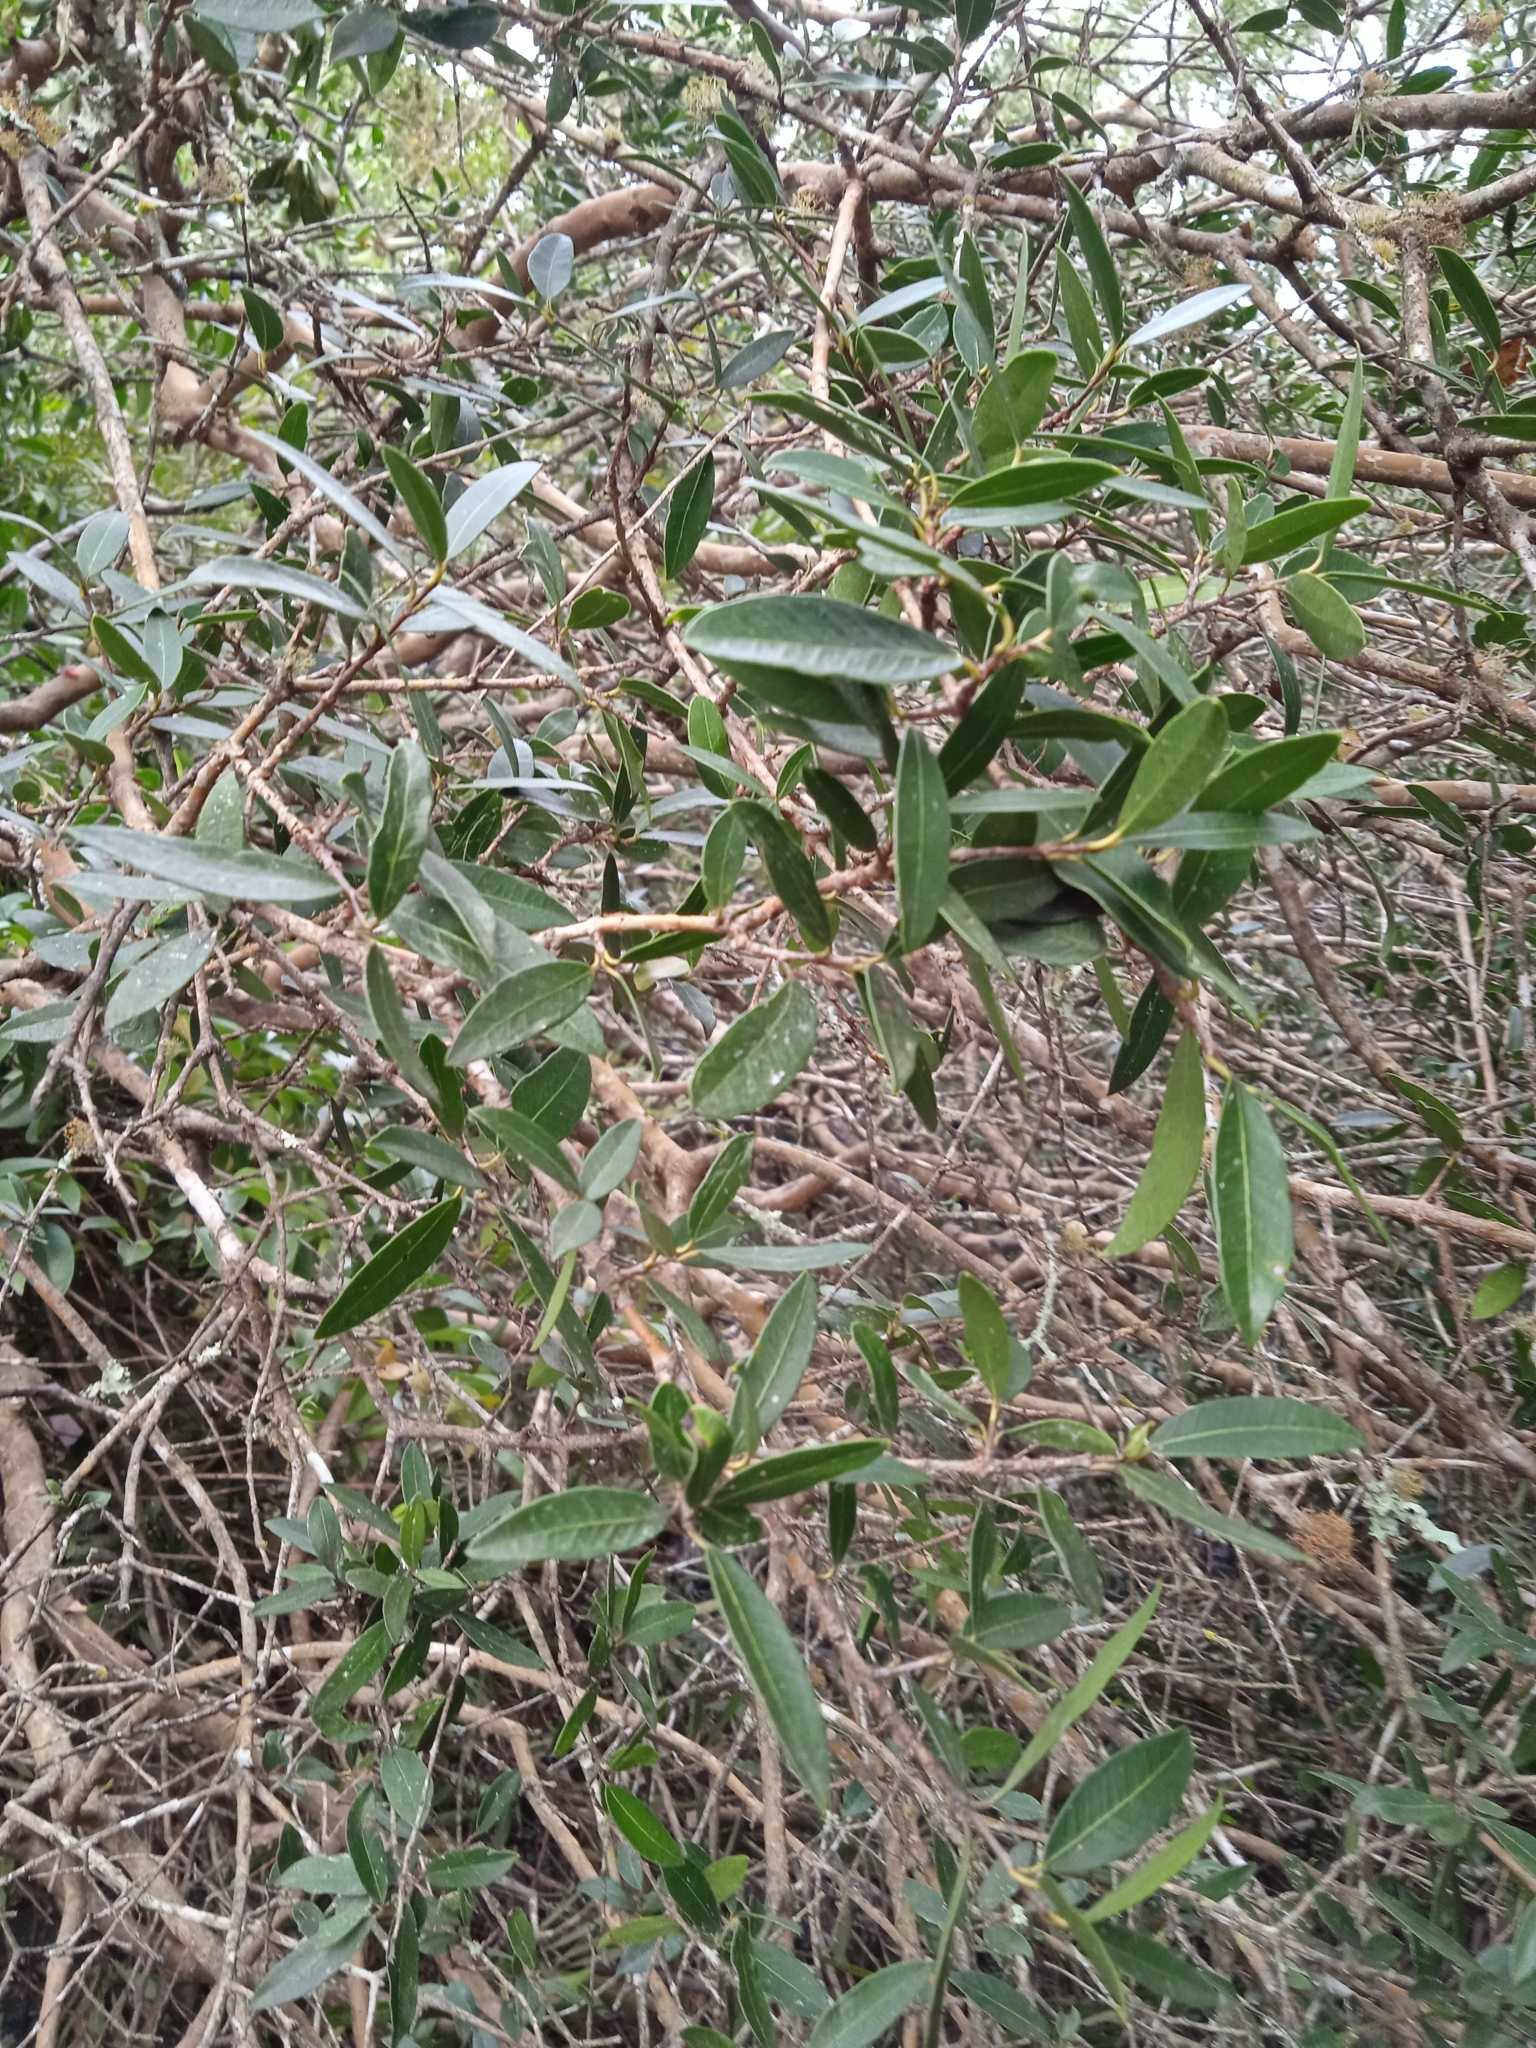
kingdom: Plantae
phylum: Tracheophyta
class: Magnoliopsida
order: Myrtales
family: Myrtaceae
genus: Myrcianthes
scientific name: Myrcianthes cisplatensis
